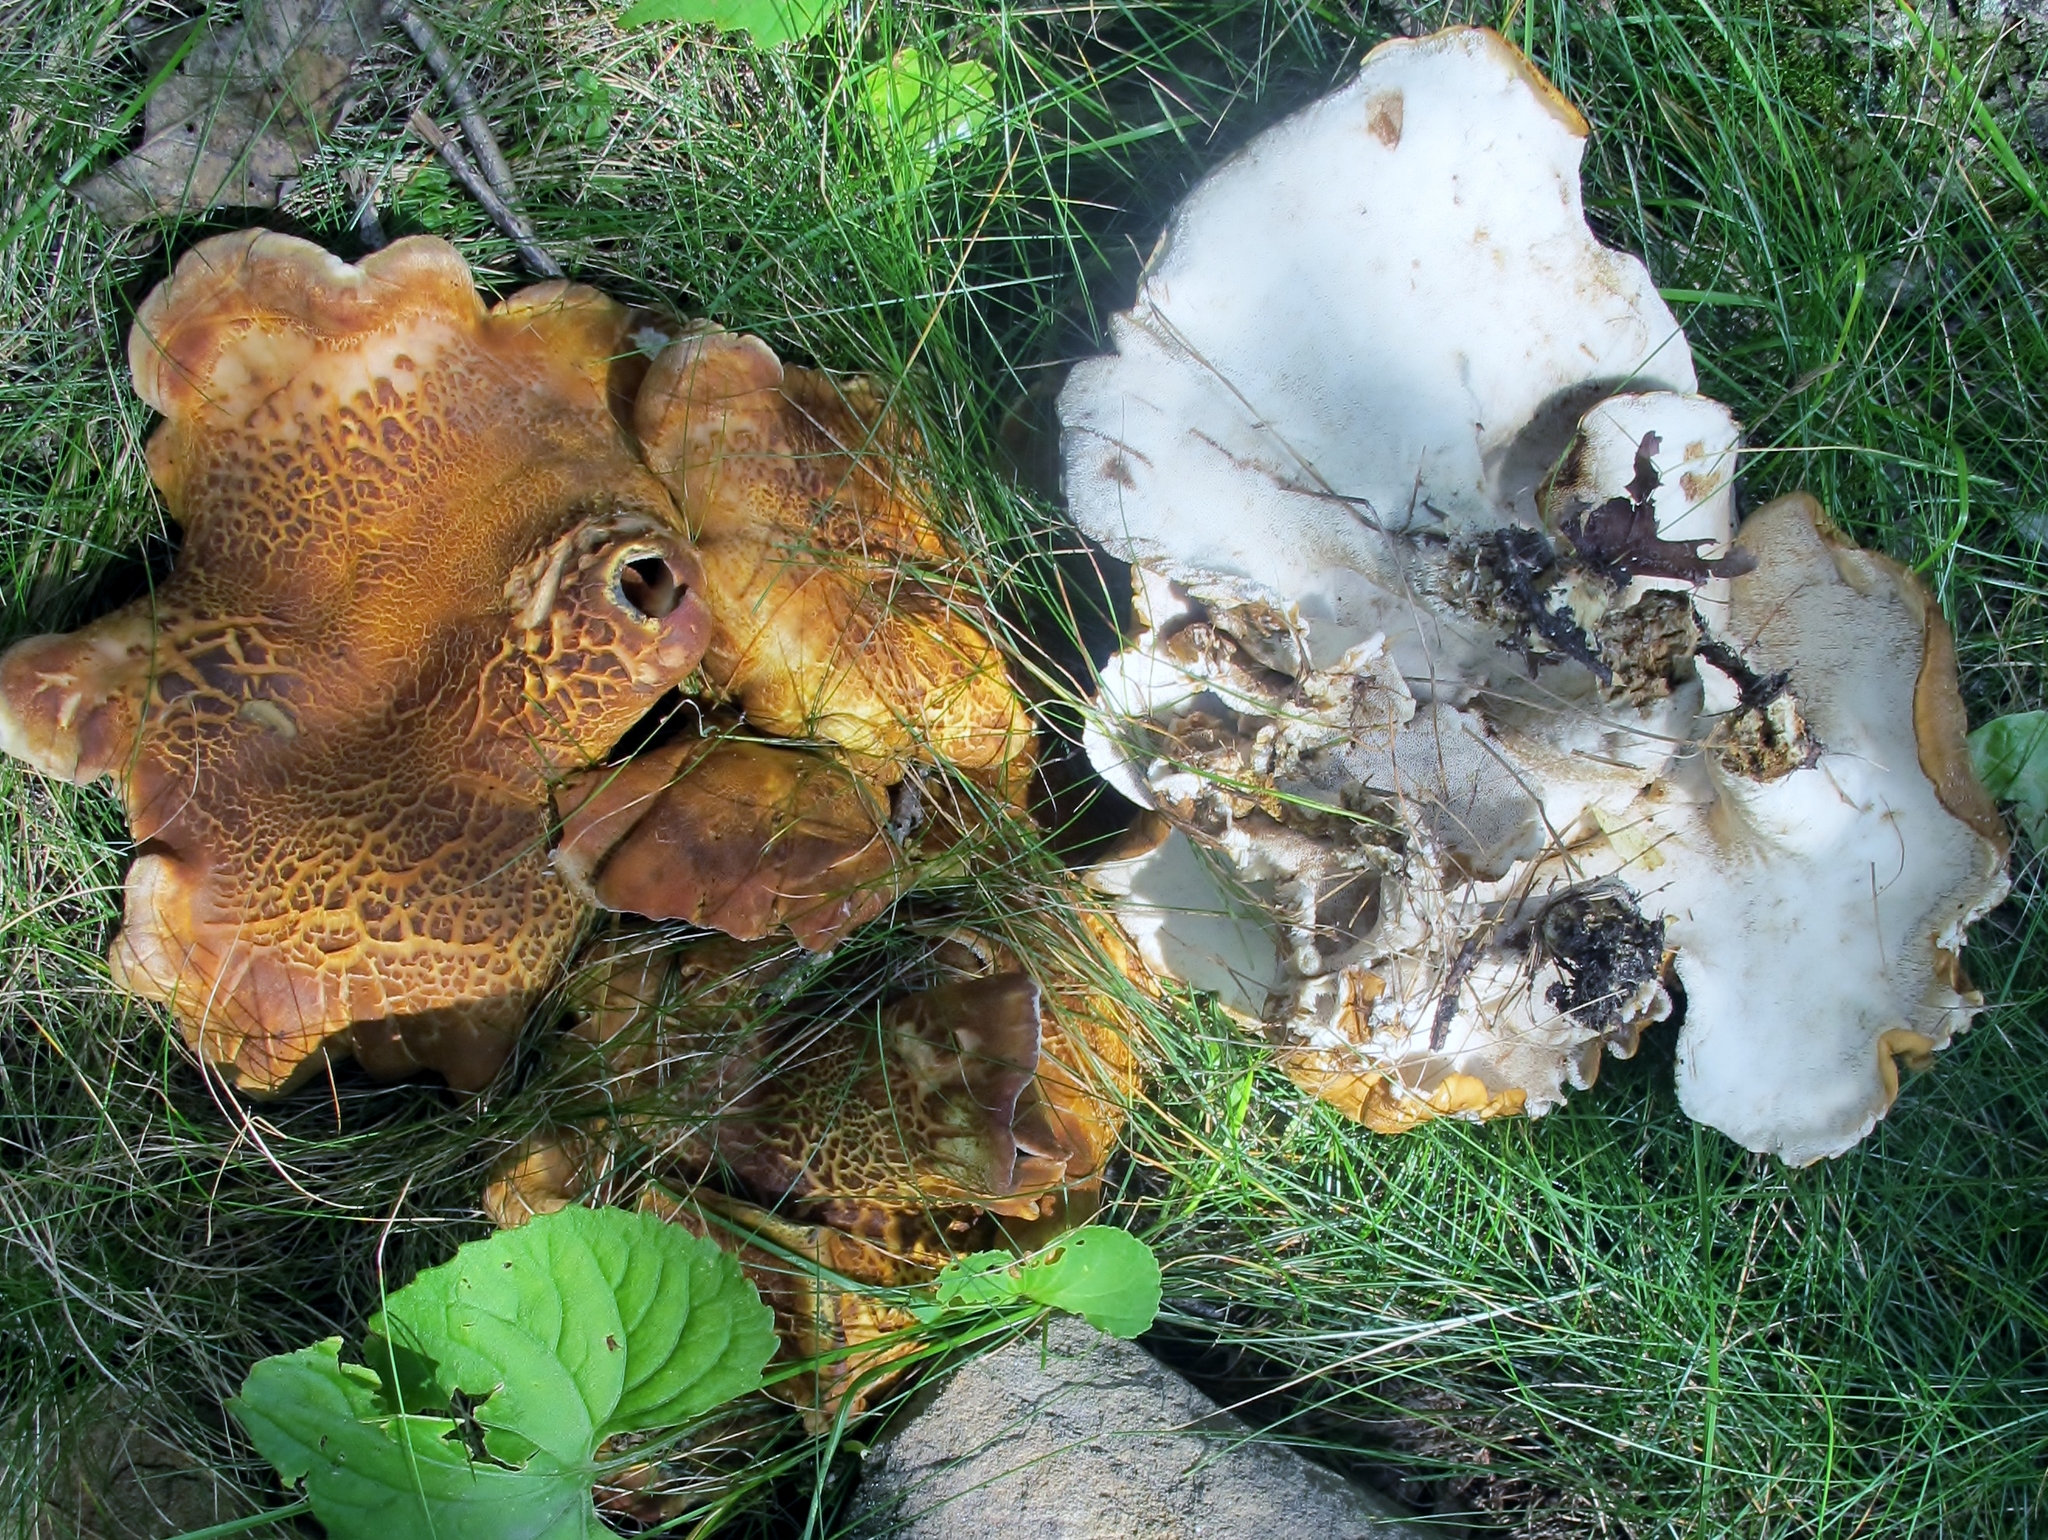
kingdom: Fungi
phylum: Basidiomycota
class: Agaricomycetes
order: Russulales
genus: Laeticutis
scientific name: Laeticutis cristata
